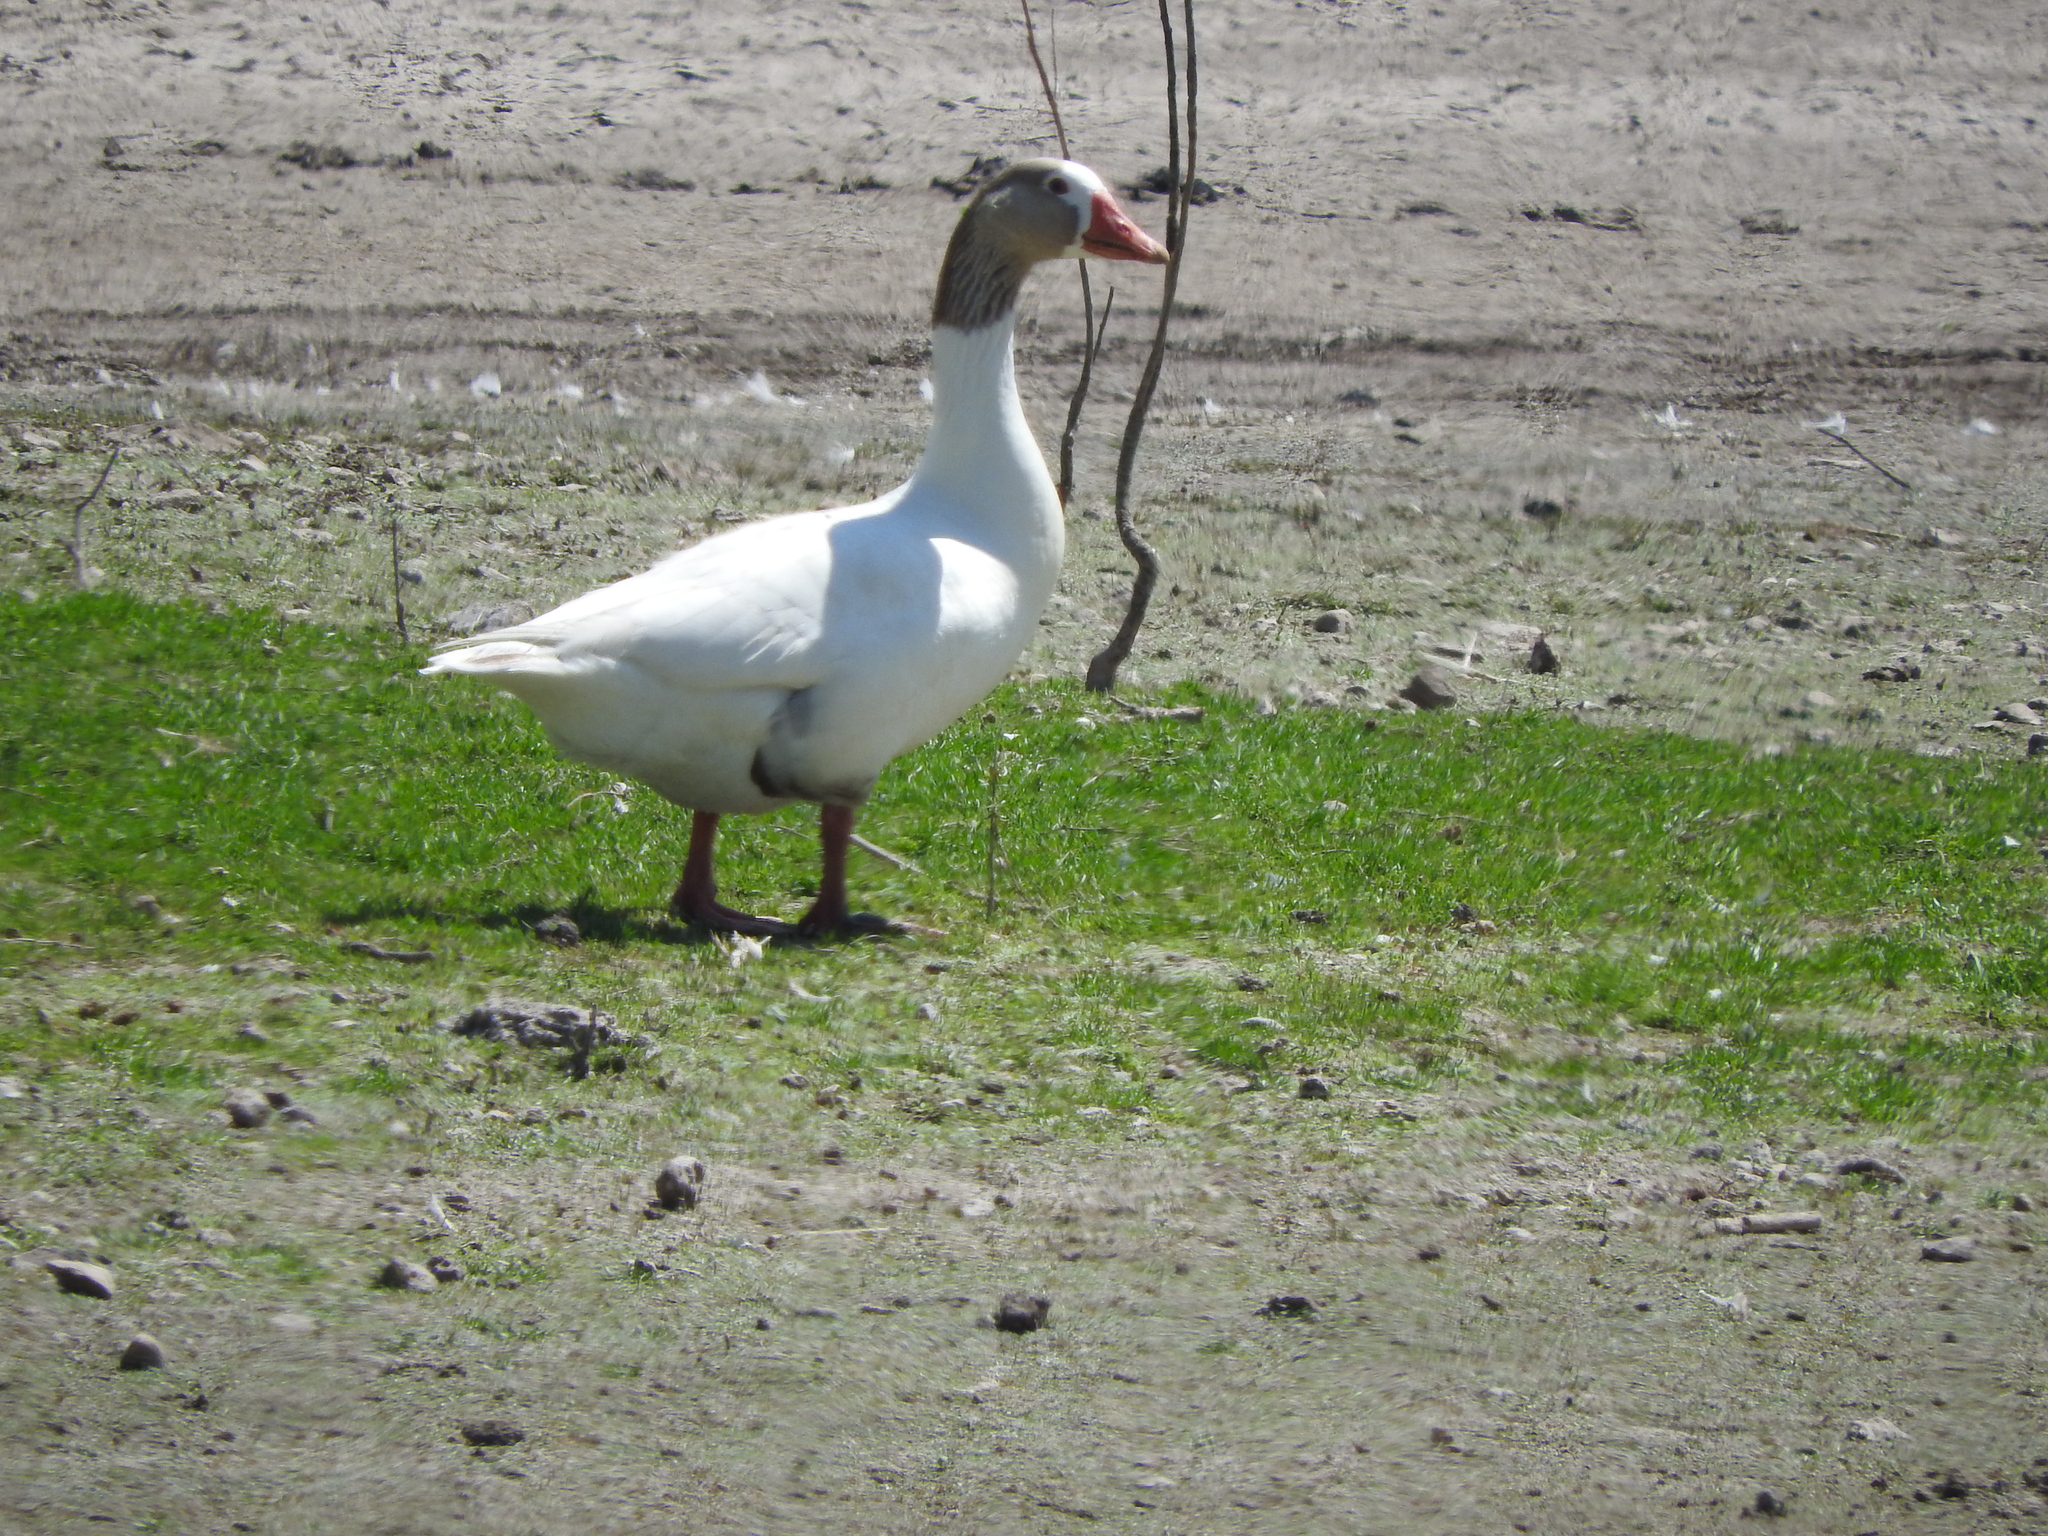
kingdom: Animalia
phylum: Chordata
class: Aves
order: Anseriformes
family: Anatidae
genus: Anser
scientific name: Anser anser
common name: Greylag goose
